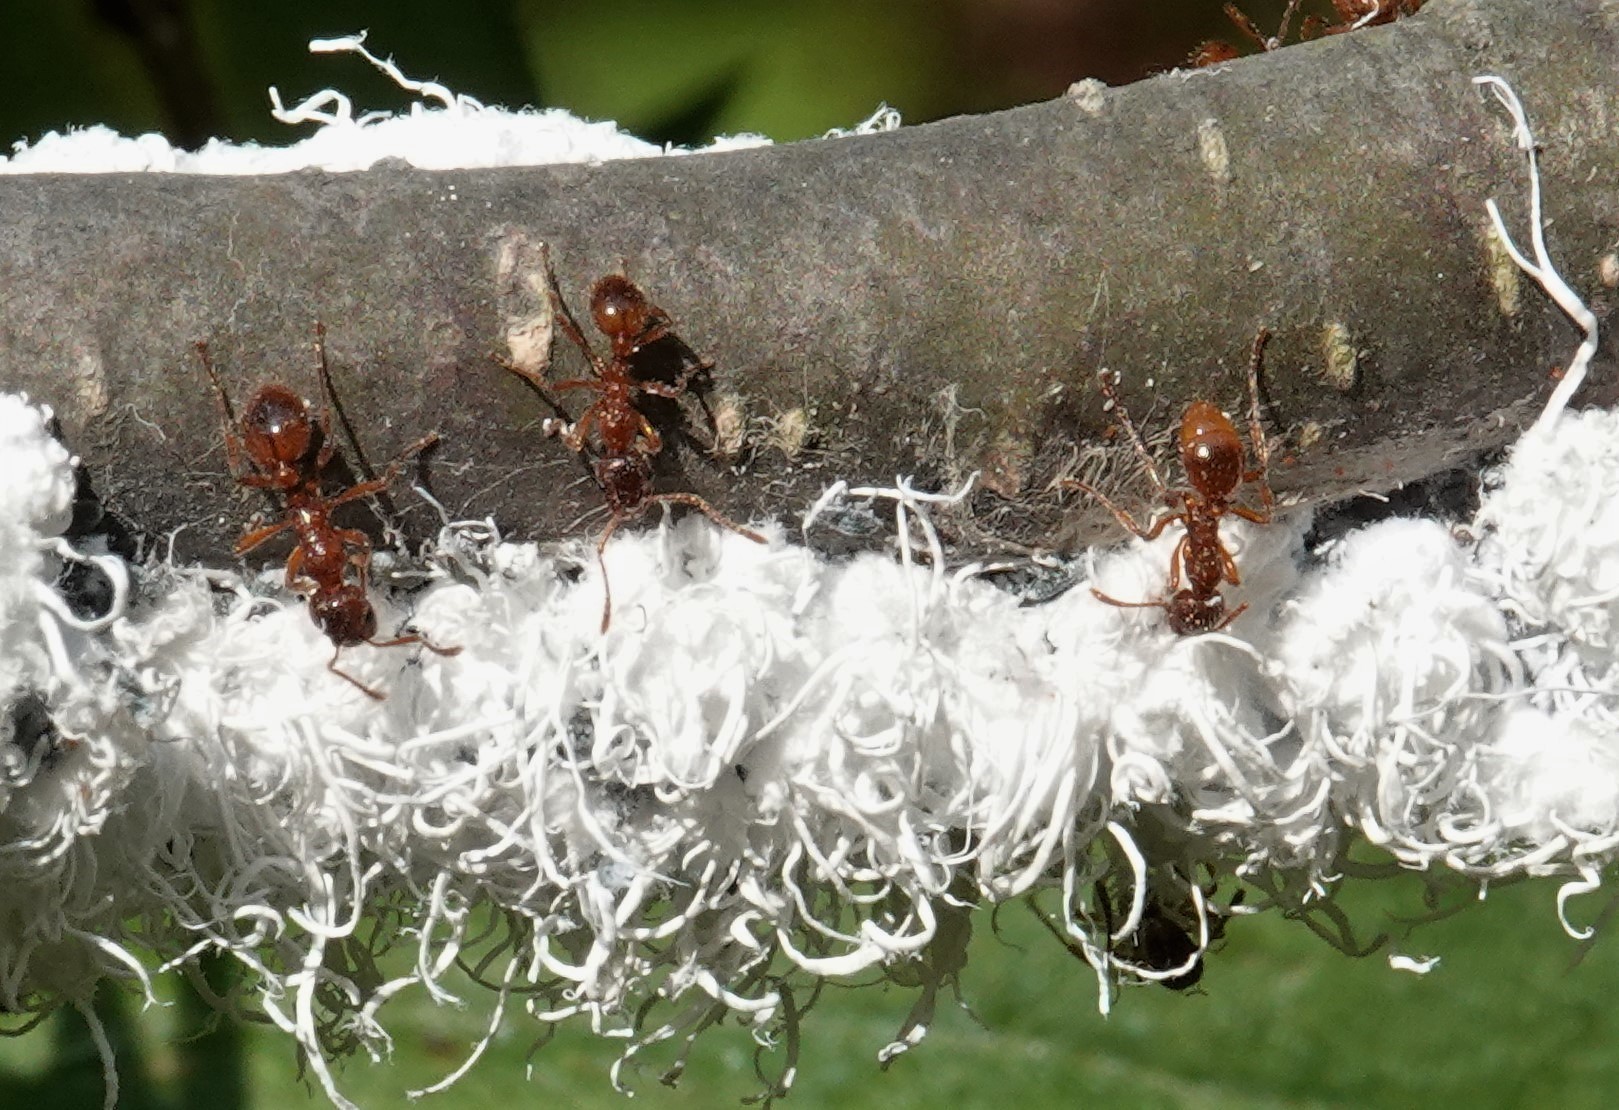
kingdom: Animalia
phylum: Arthropoda
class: Insecta
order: Hymenoptera
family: Formicidae
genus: Myrmica
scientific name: Myrmica rubra
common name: European fire ant
